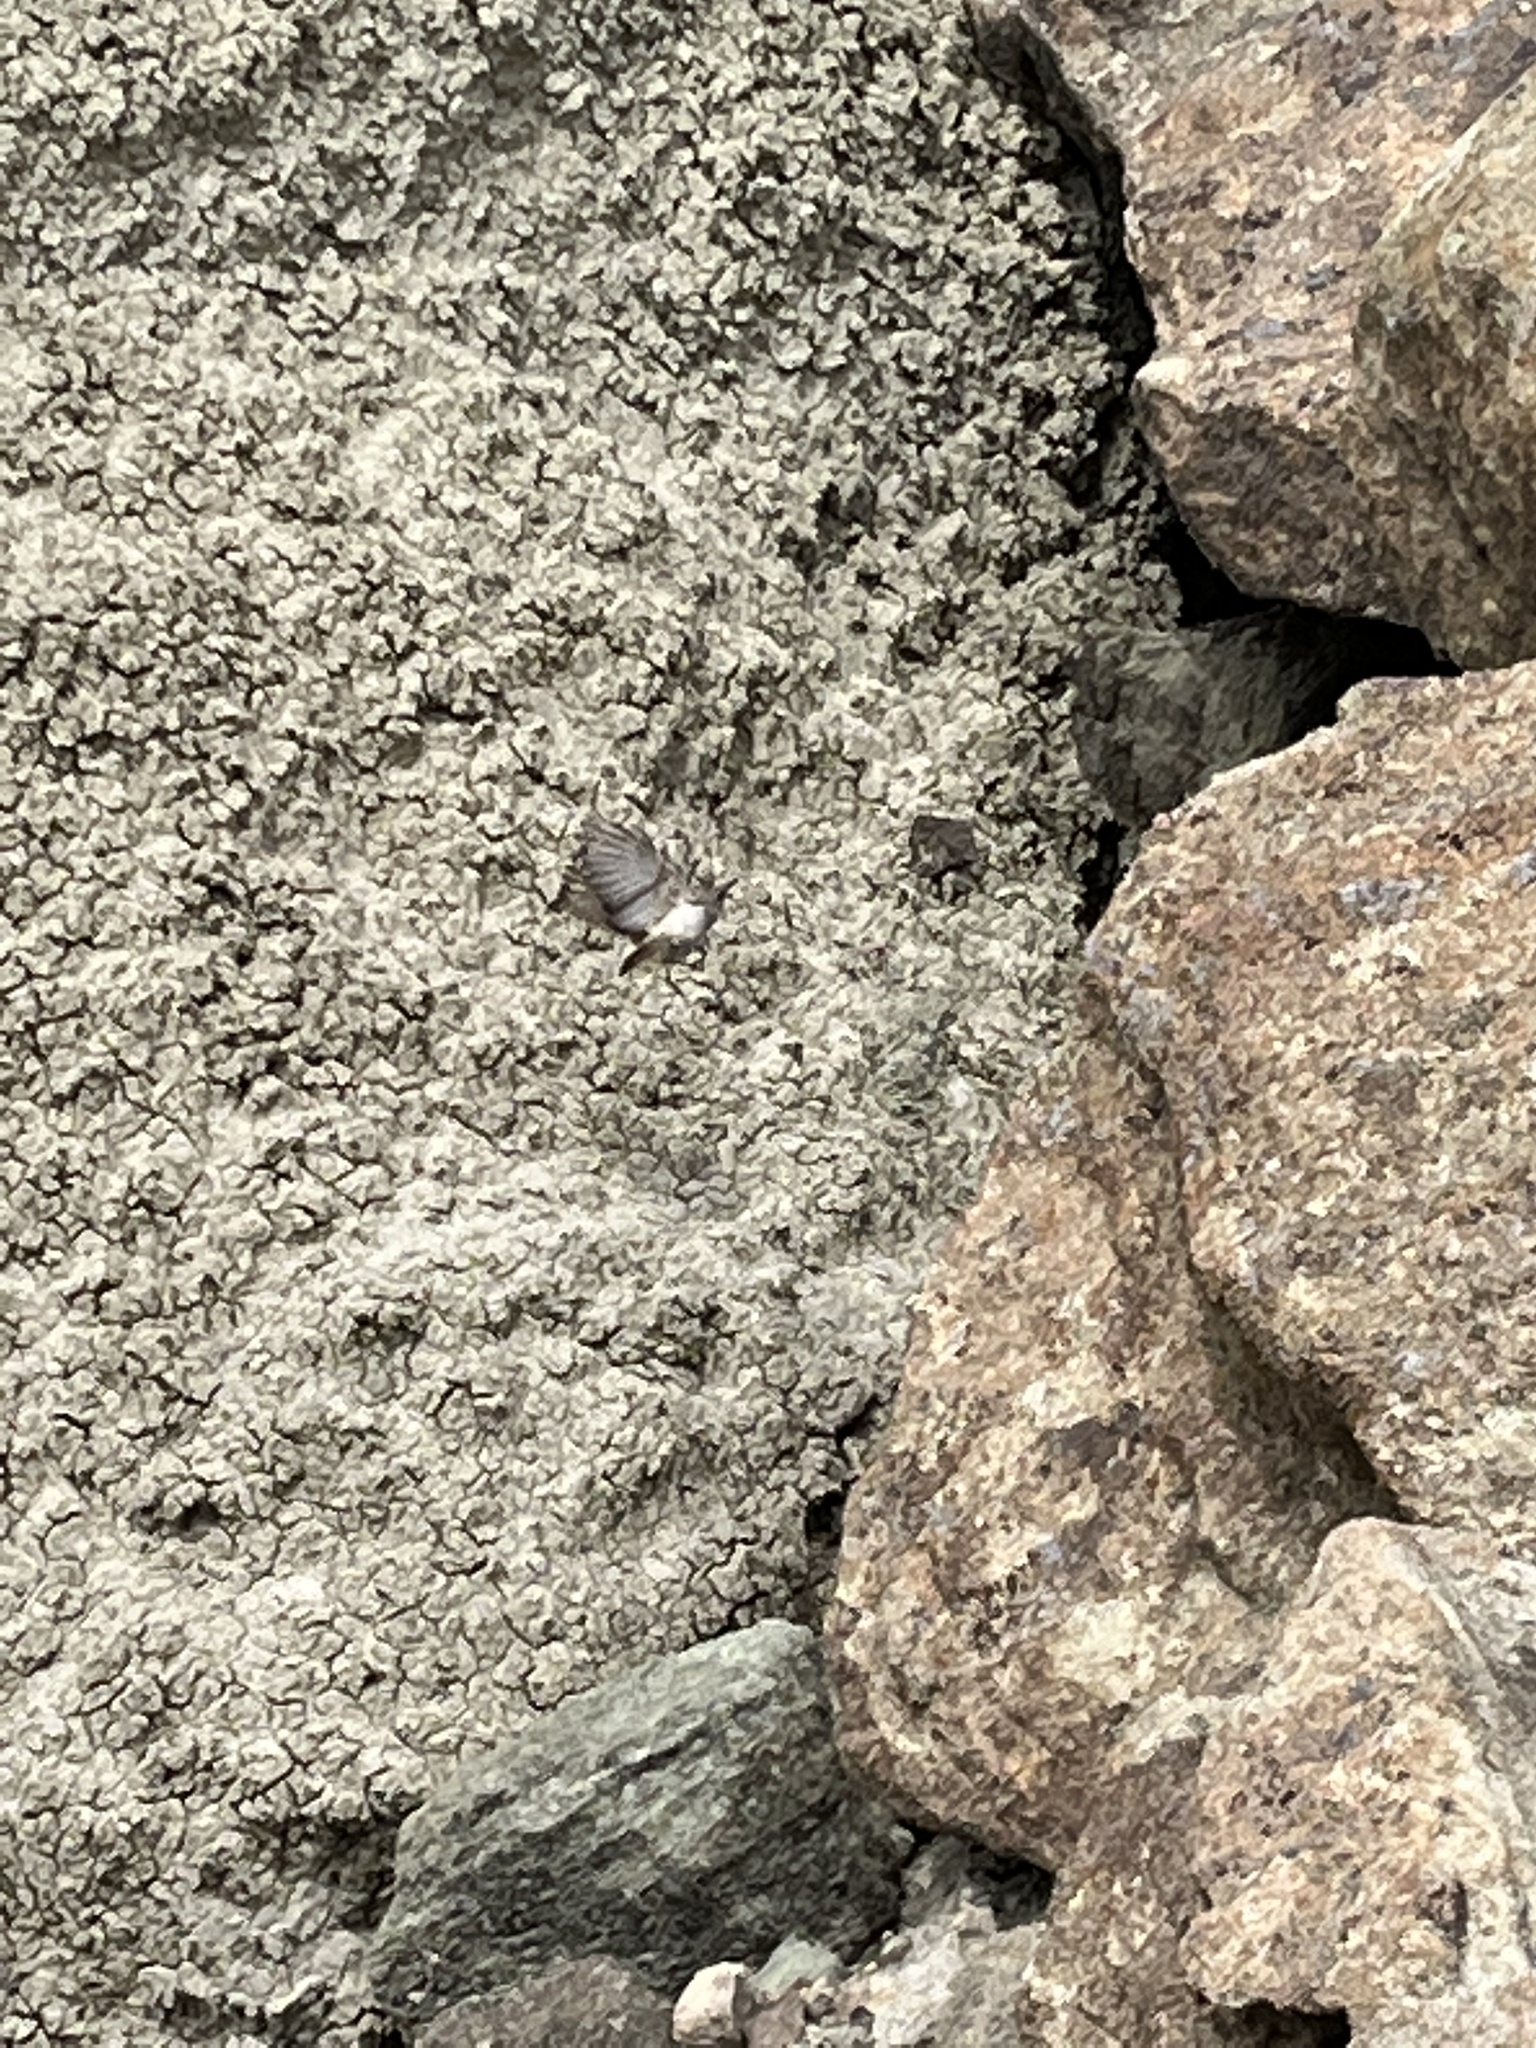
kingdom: Animalia
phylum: Chordata
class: Aves
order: Passeriformes
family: Troglodytidae
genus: Salpinctes
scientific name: Salpinctes obsoletus
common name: Rock wren
